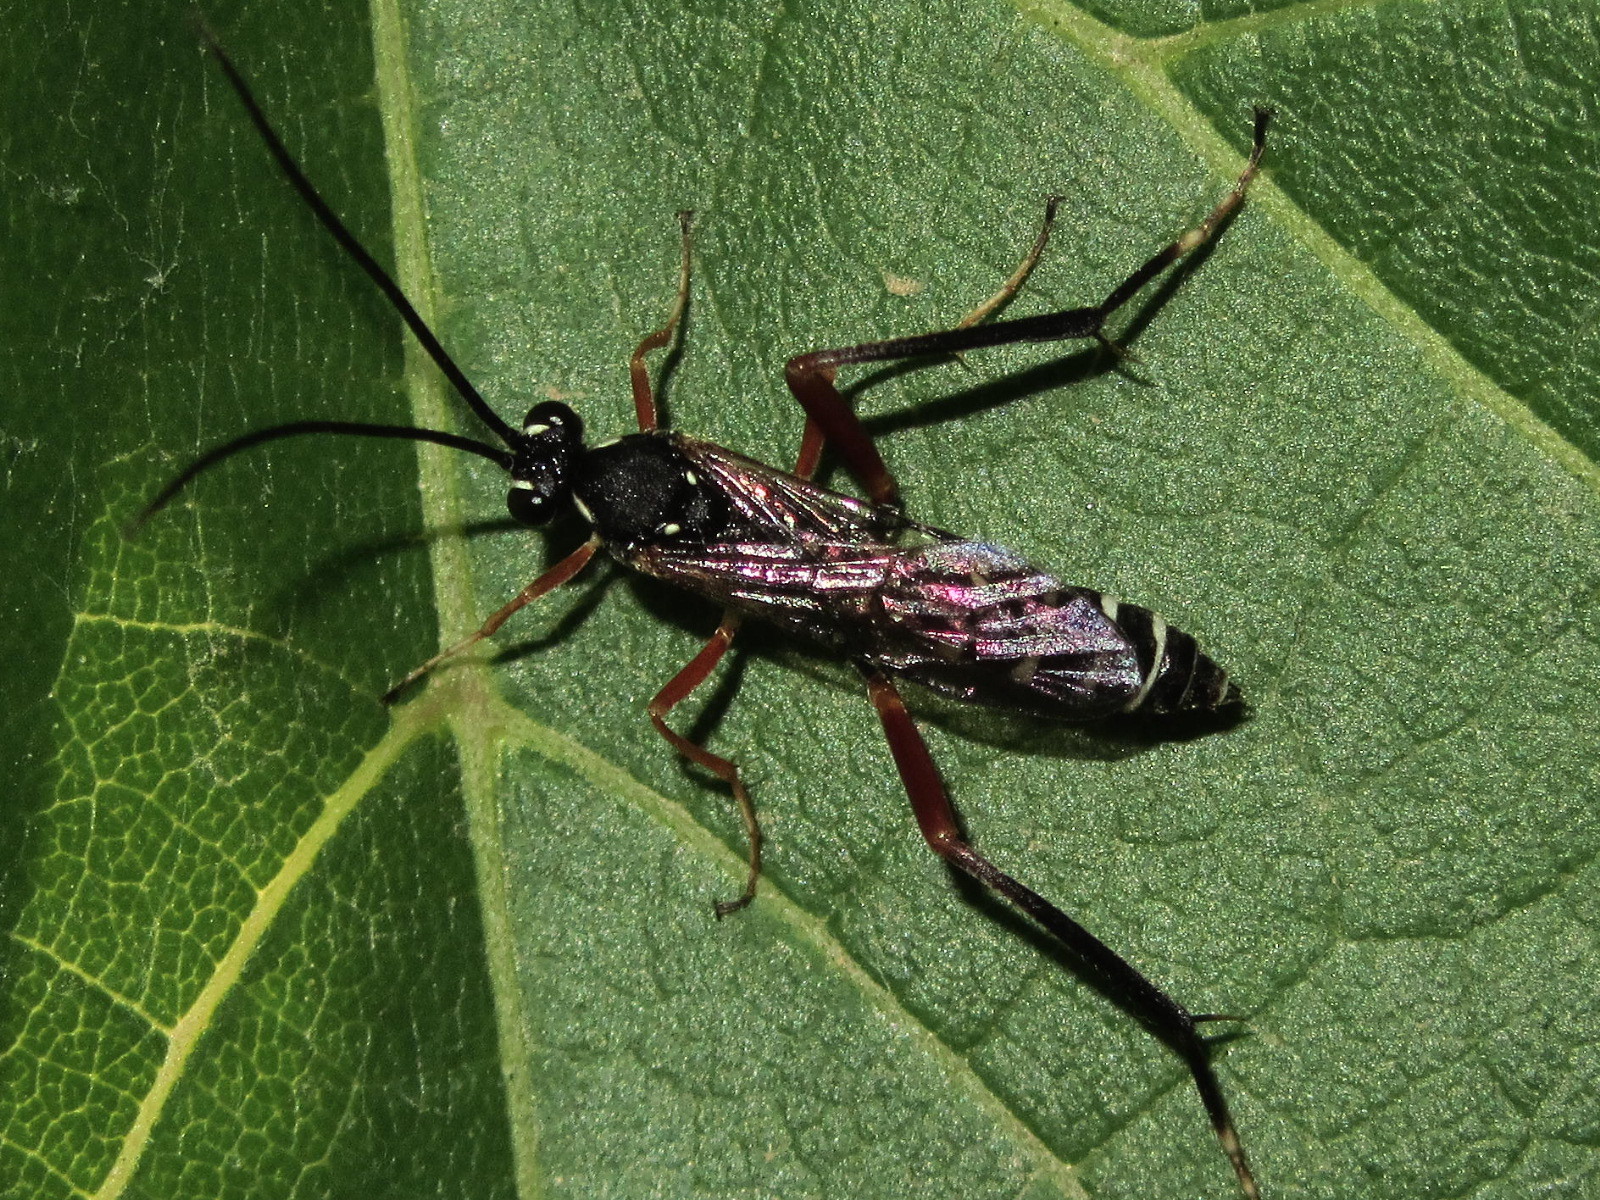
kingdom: Animalia
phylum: Arthropoda
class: Insecta
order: Hymenoptera
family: Ichneumonidae
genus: Latibulus
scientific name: Latibulus argiolus
